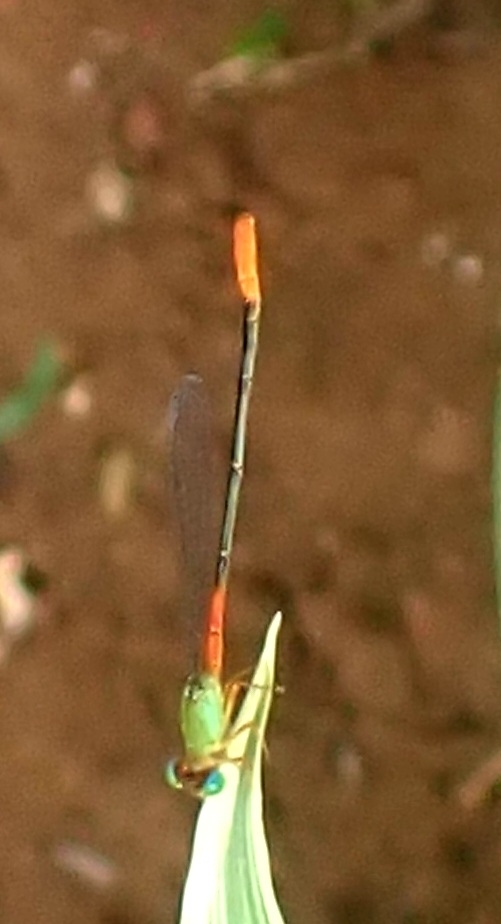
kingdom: Animalia
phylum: Arthropoda
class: Insecta
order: Odonata
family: Coenagrionidae
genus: Ceriagrion
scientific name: Ceriagrion cerinorubellum
